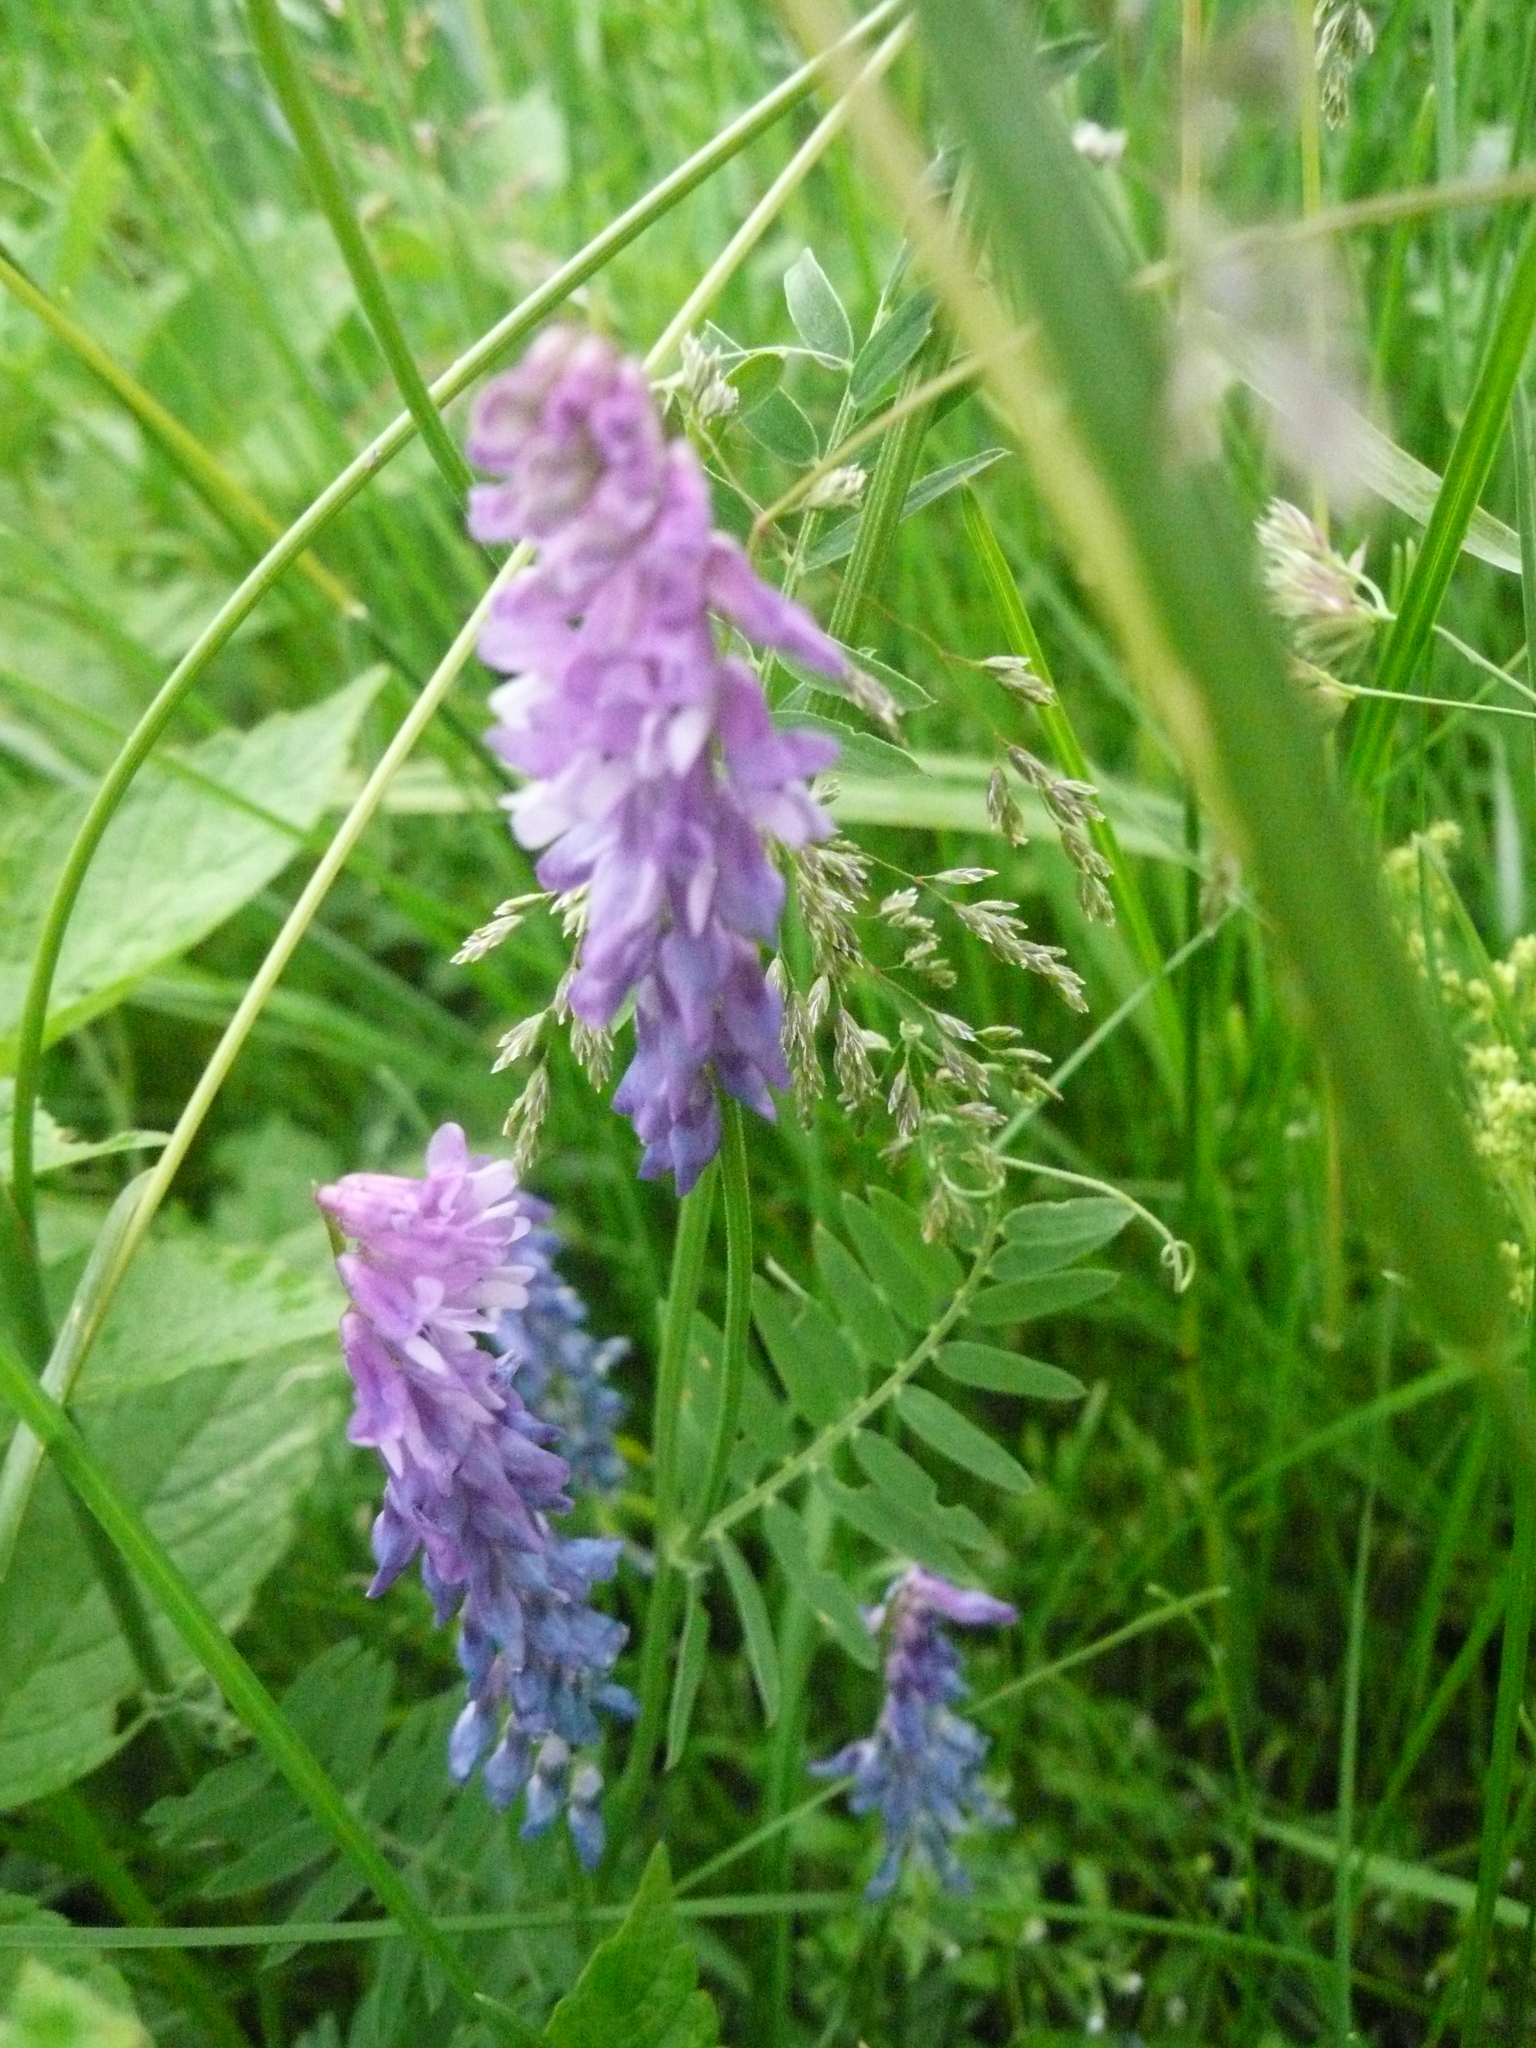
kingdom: Plantae
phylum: Tracheophyta
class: Magnoliopsida
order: Fabales
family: Fabaceae
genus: Vicia
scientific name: Vicia cracca
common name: Bird vetch
